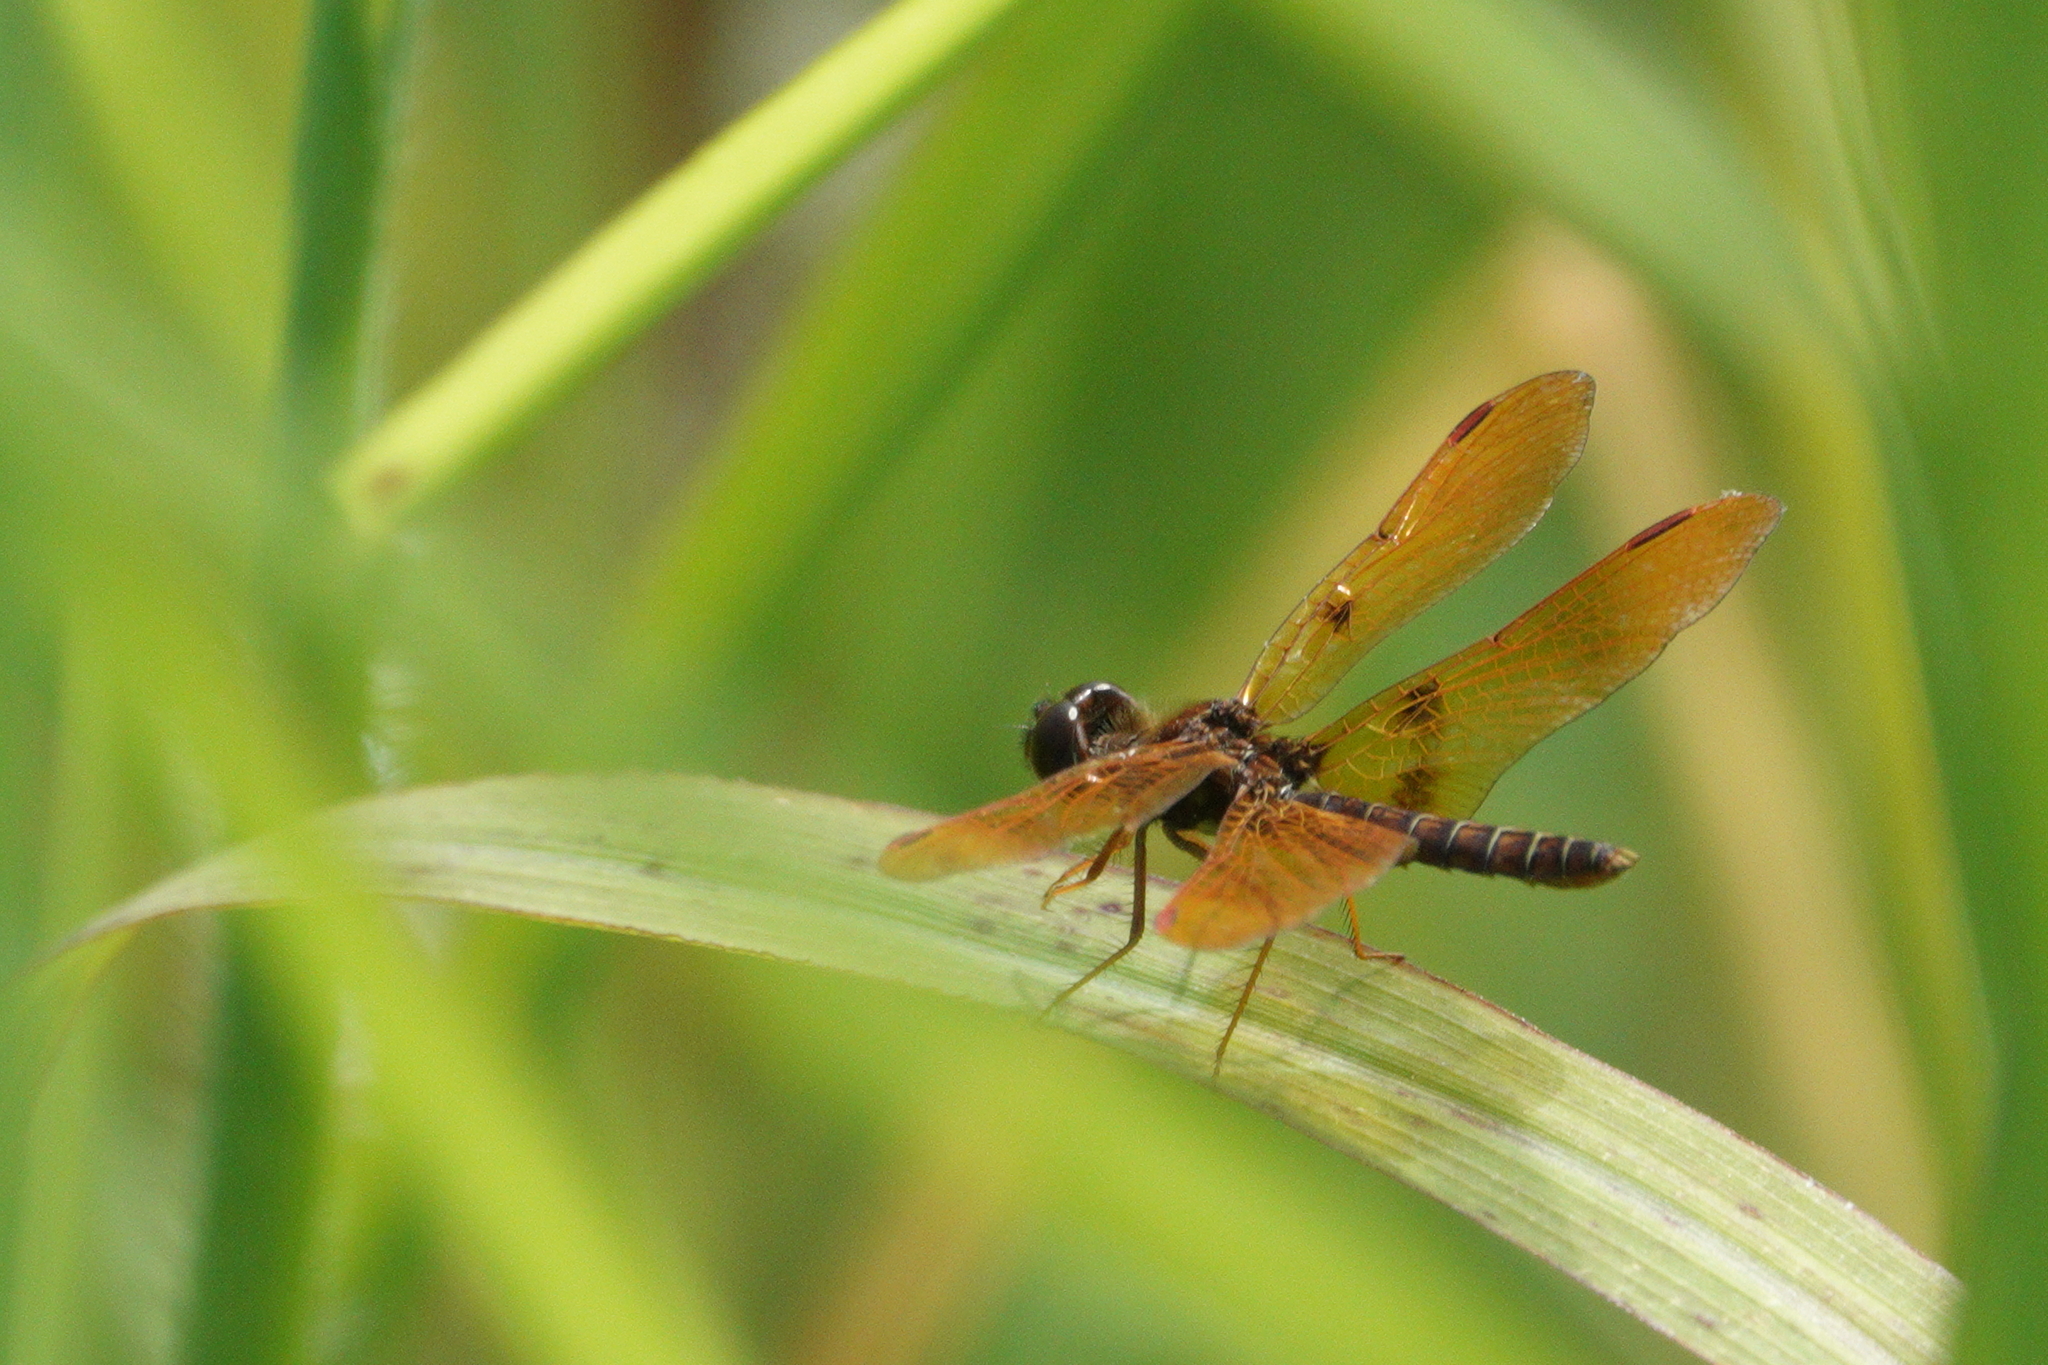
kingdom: Animalia
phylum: Arthropoda
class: Insecta
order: Odonata
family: Libellulidae
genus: Perithemis
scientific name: Perithemis tenera
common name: Eastern amberwing
